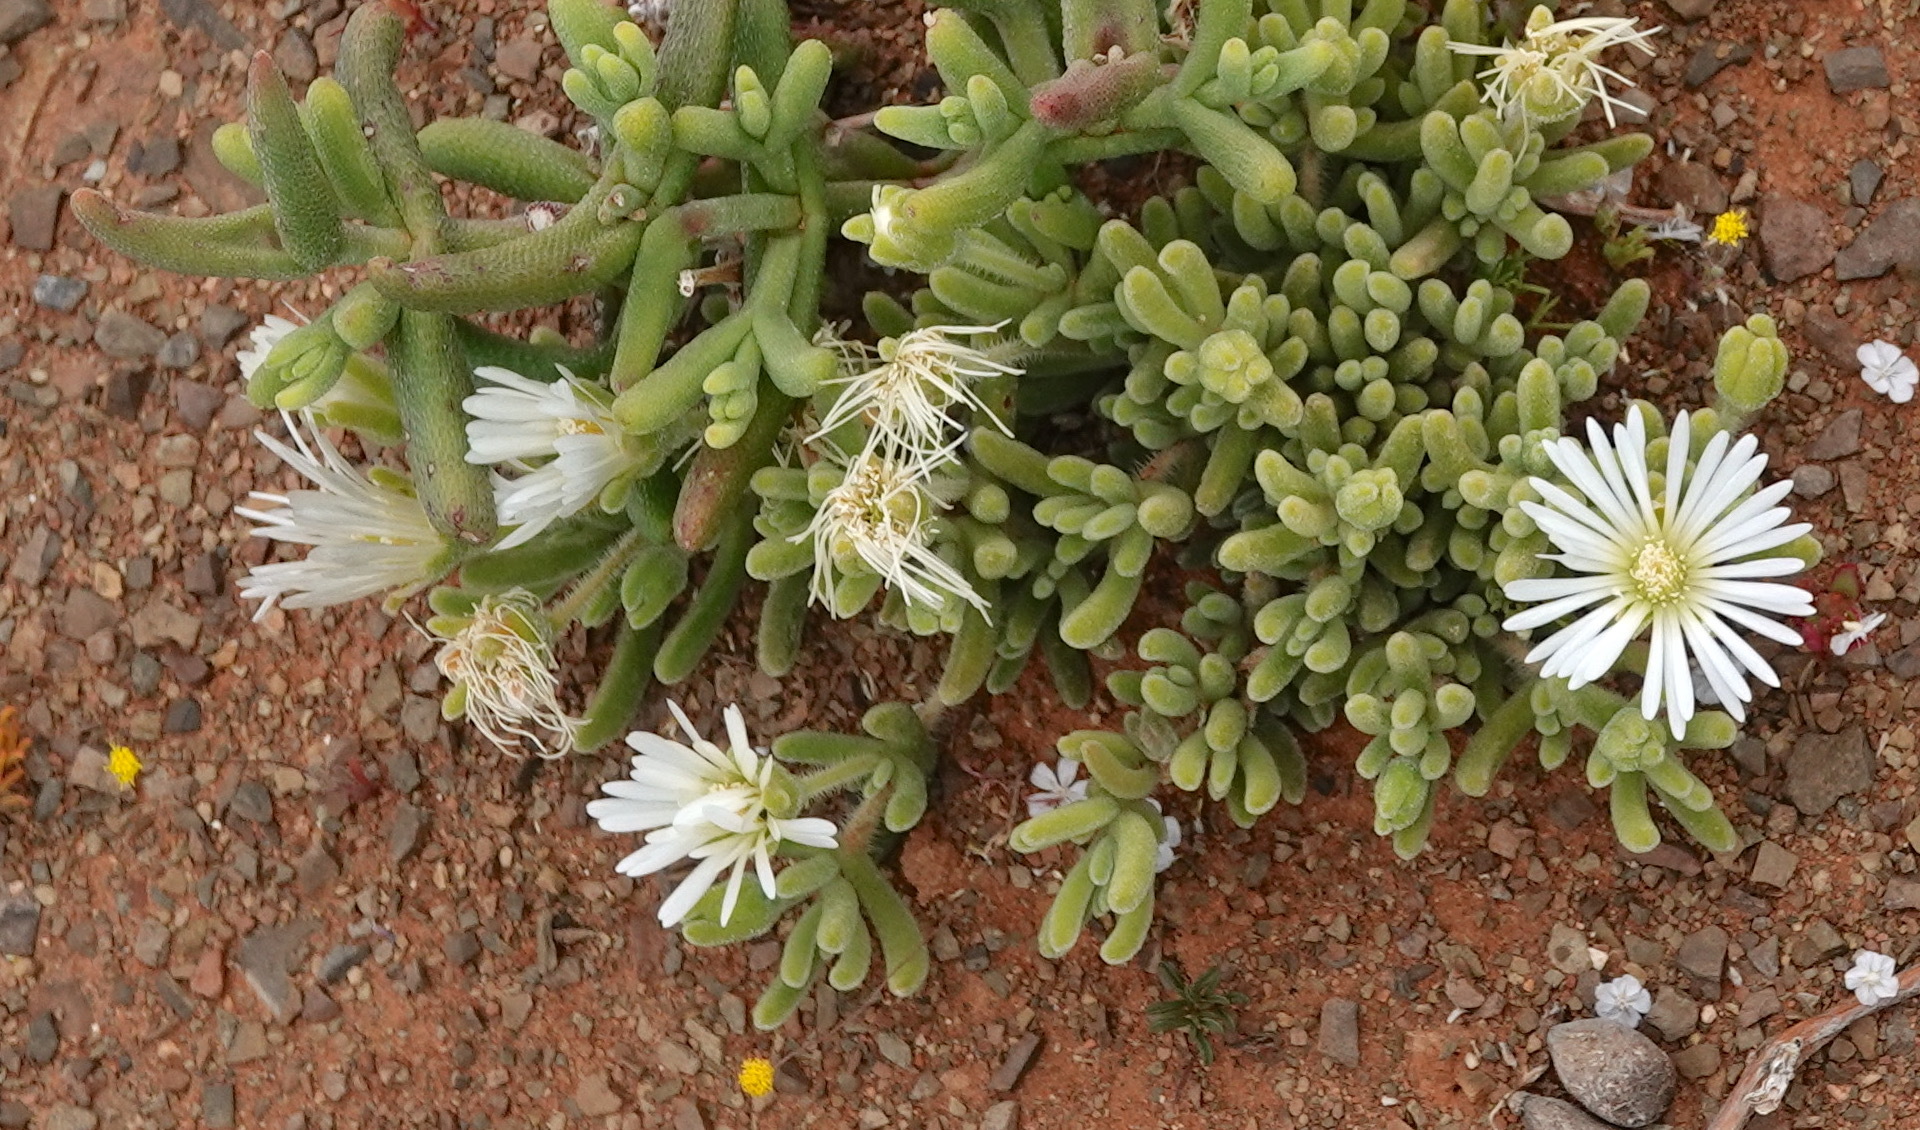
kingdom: Plantae
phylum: Tracheophyta
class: Magnoliopsida
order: Caryophyllales
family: Aizoaceae
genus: Drosanthemum
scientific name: Drosanthemum framesii
